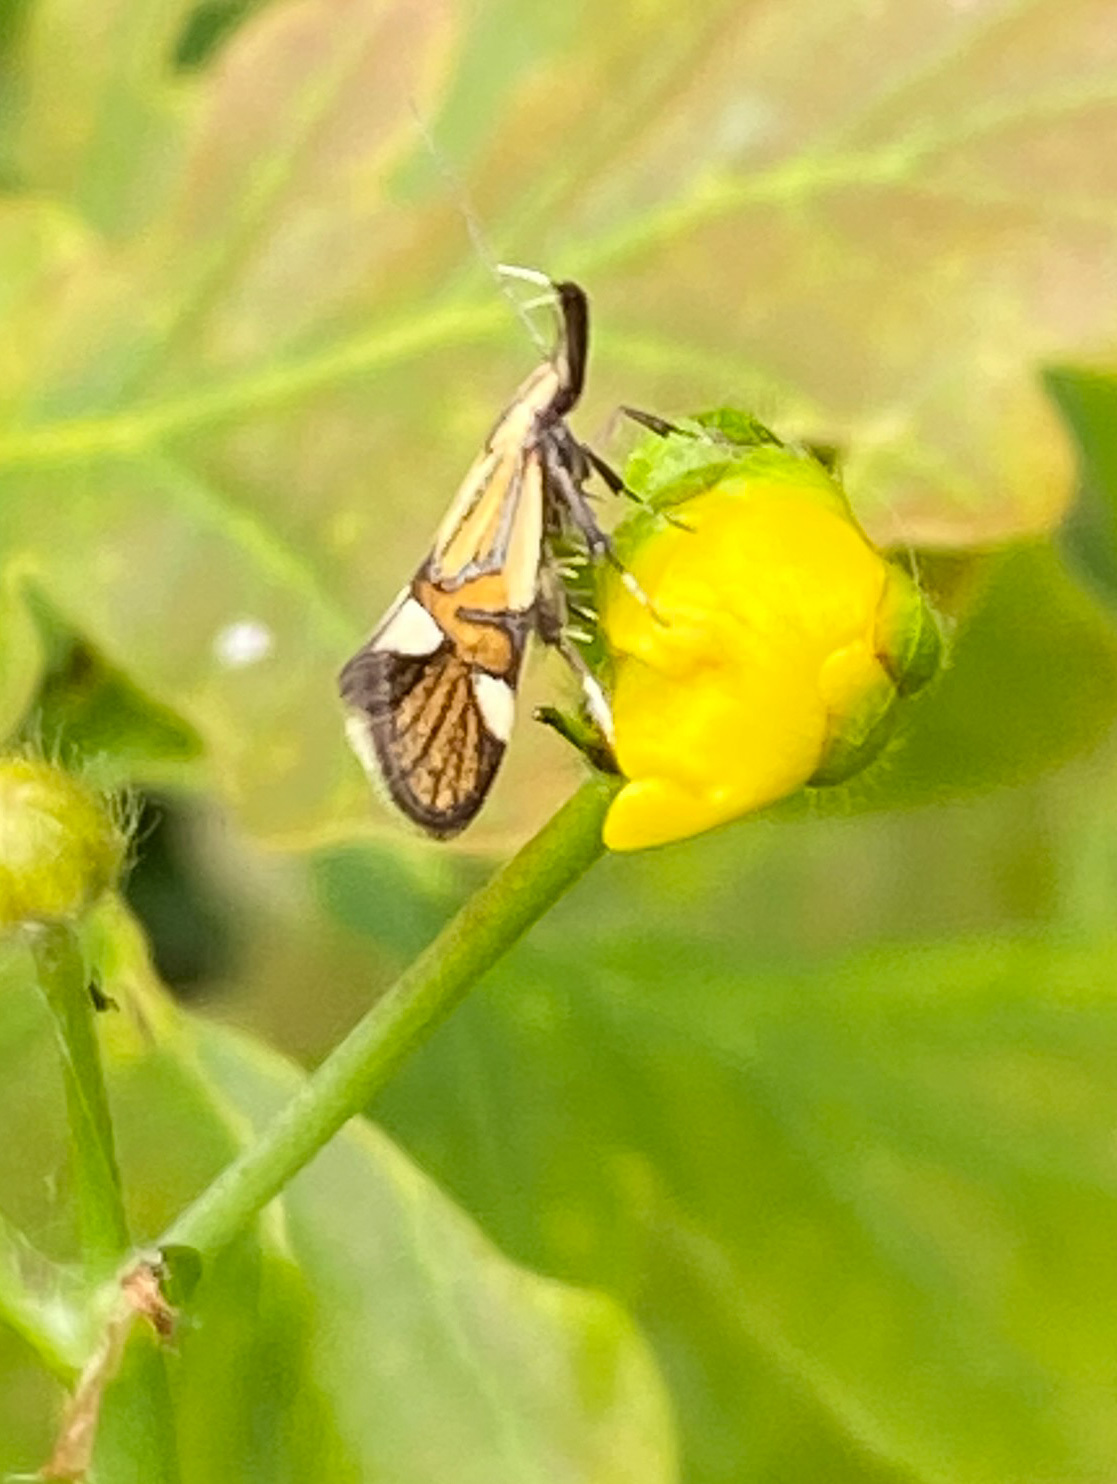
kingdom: Animalia
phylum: Arthropoda
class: Insecta
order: Lepidoptera
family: Oecophoridae
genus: Oecophora
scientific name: Oecophora Alabonia geoffrella
